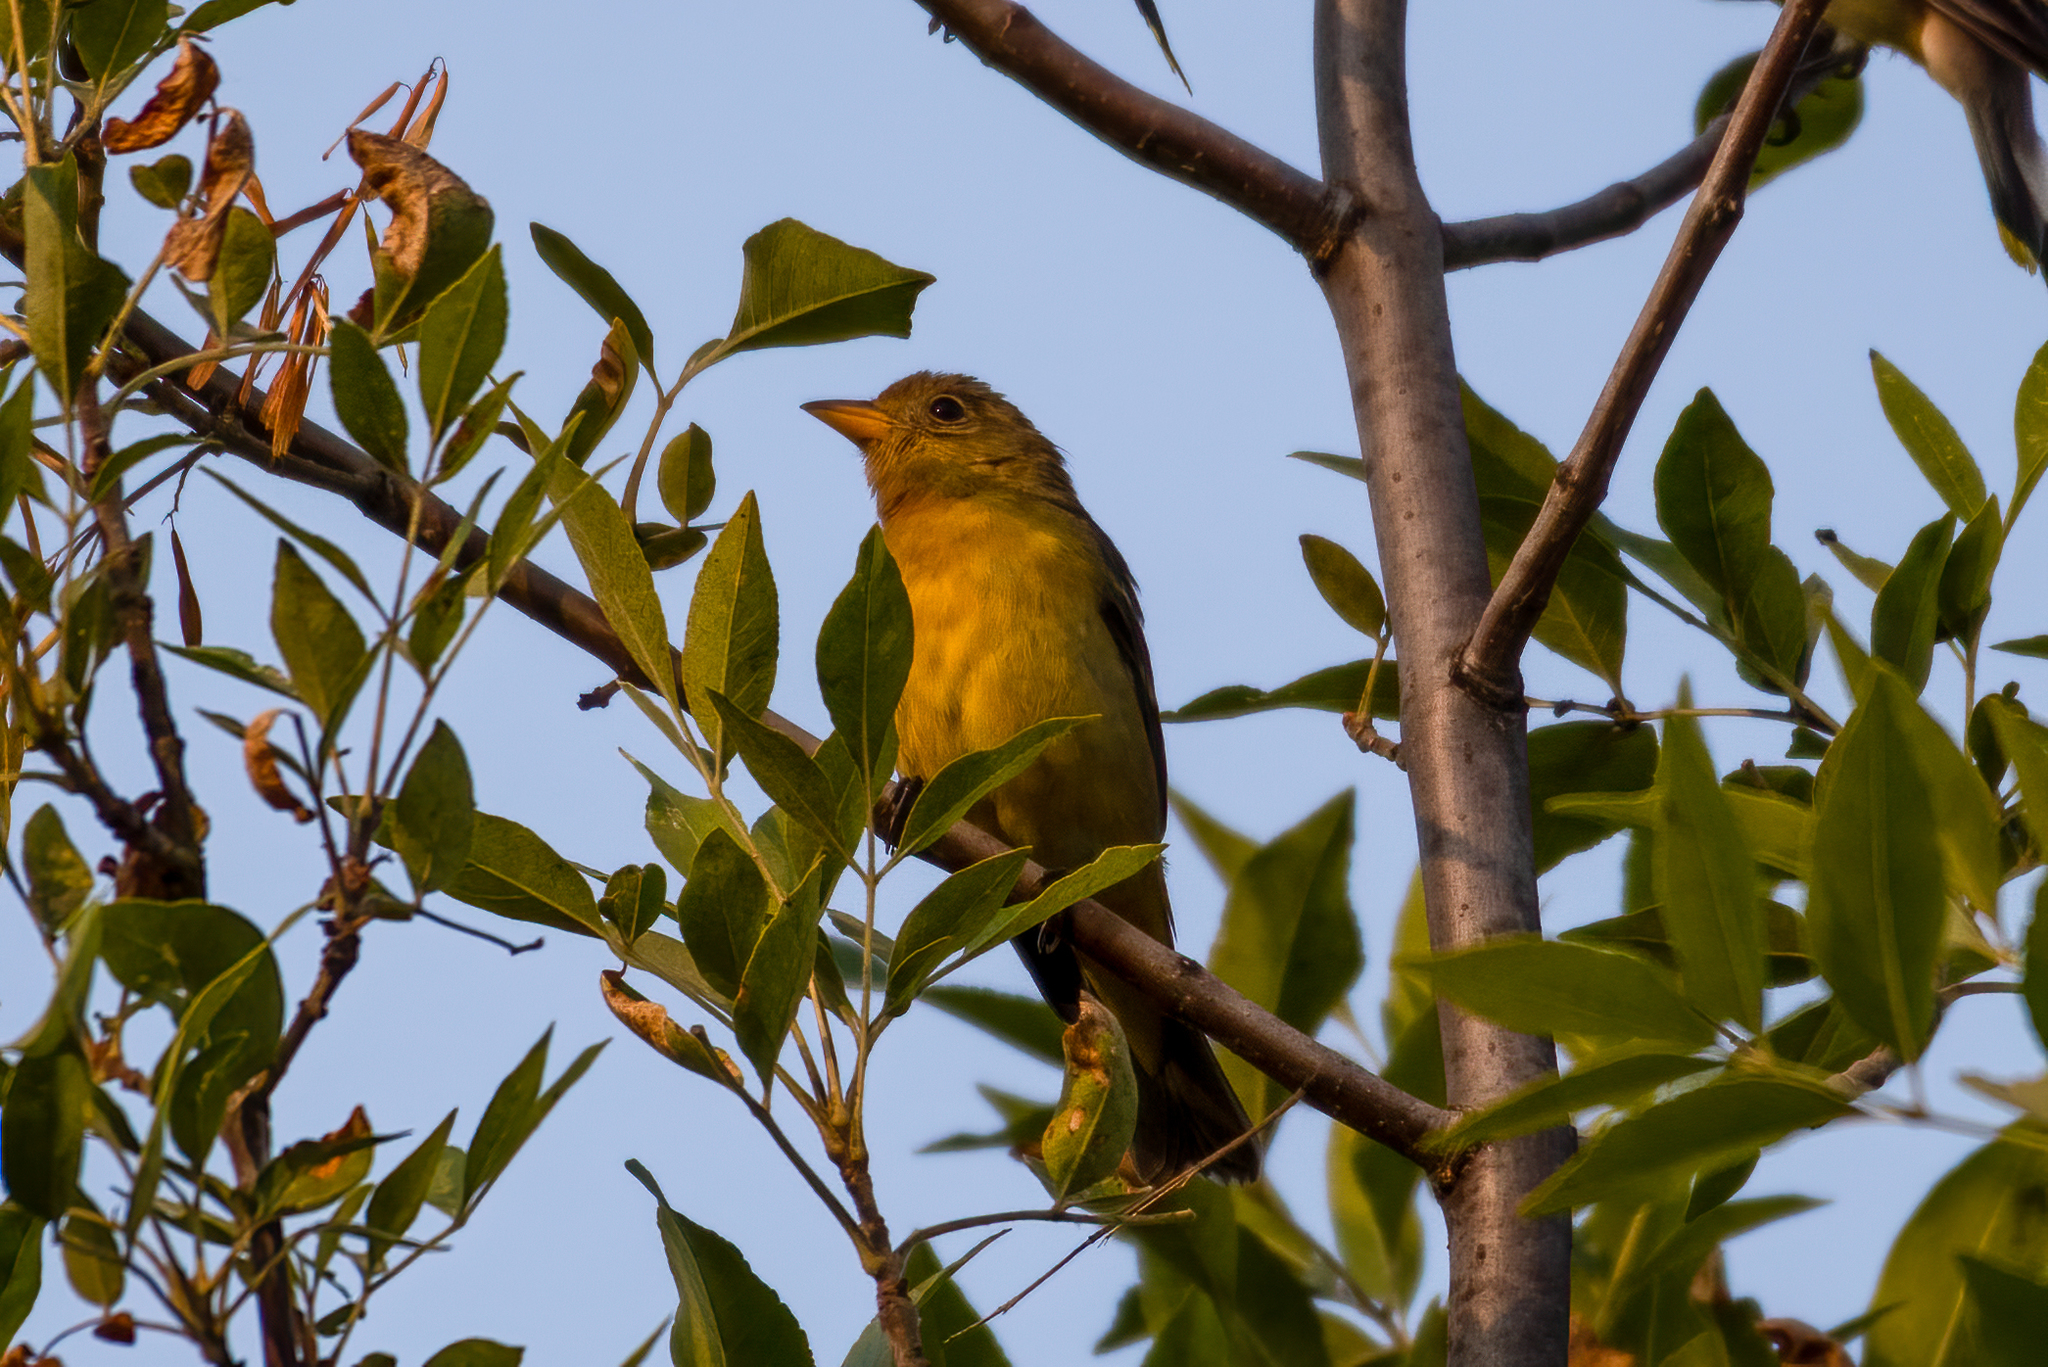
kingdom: Animalia
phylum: Chordata
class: Aves
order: Passeriformes
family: Cardinalidae
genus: Piranga
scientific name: Piranga ludoviciana
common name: Western tanager
